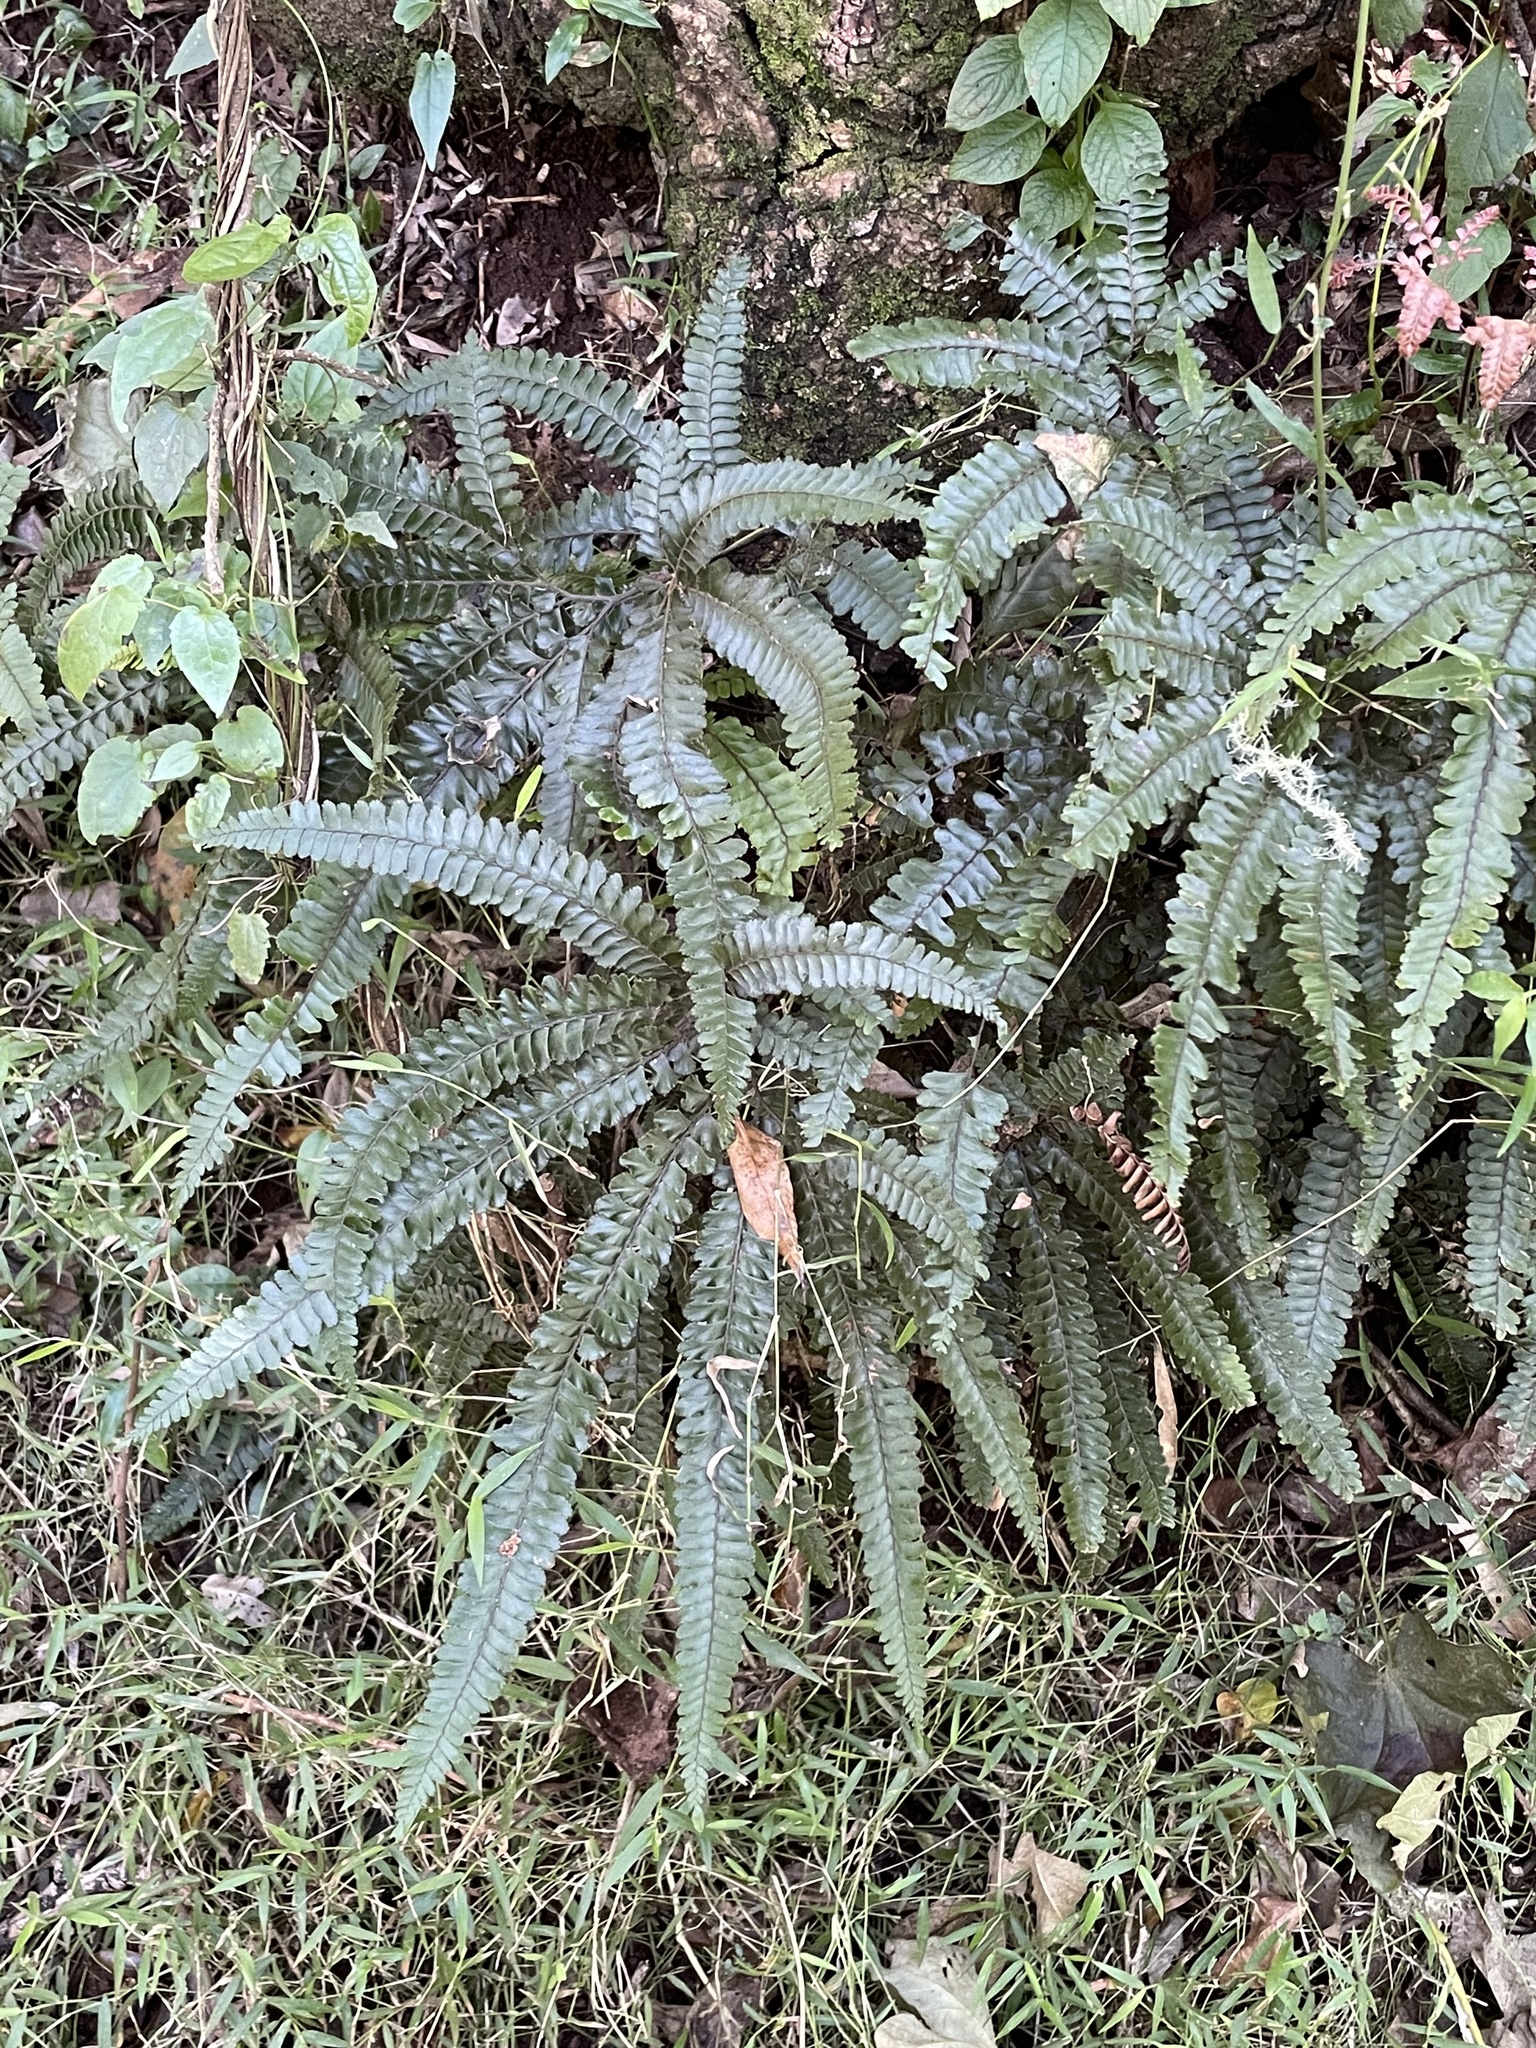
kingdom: Plantae
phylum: Tracheophyta
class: Polypodiopsida
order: Polypodiales
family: Pteridaceae
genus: Adiantum
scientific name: Adiantum hispidulum
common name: Rough maidenhair
